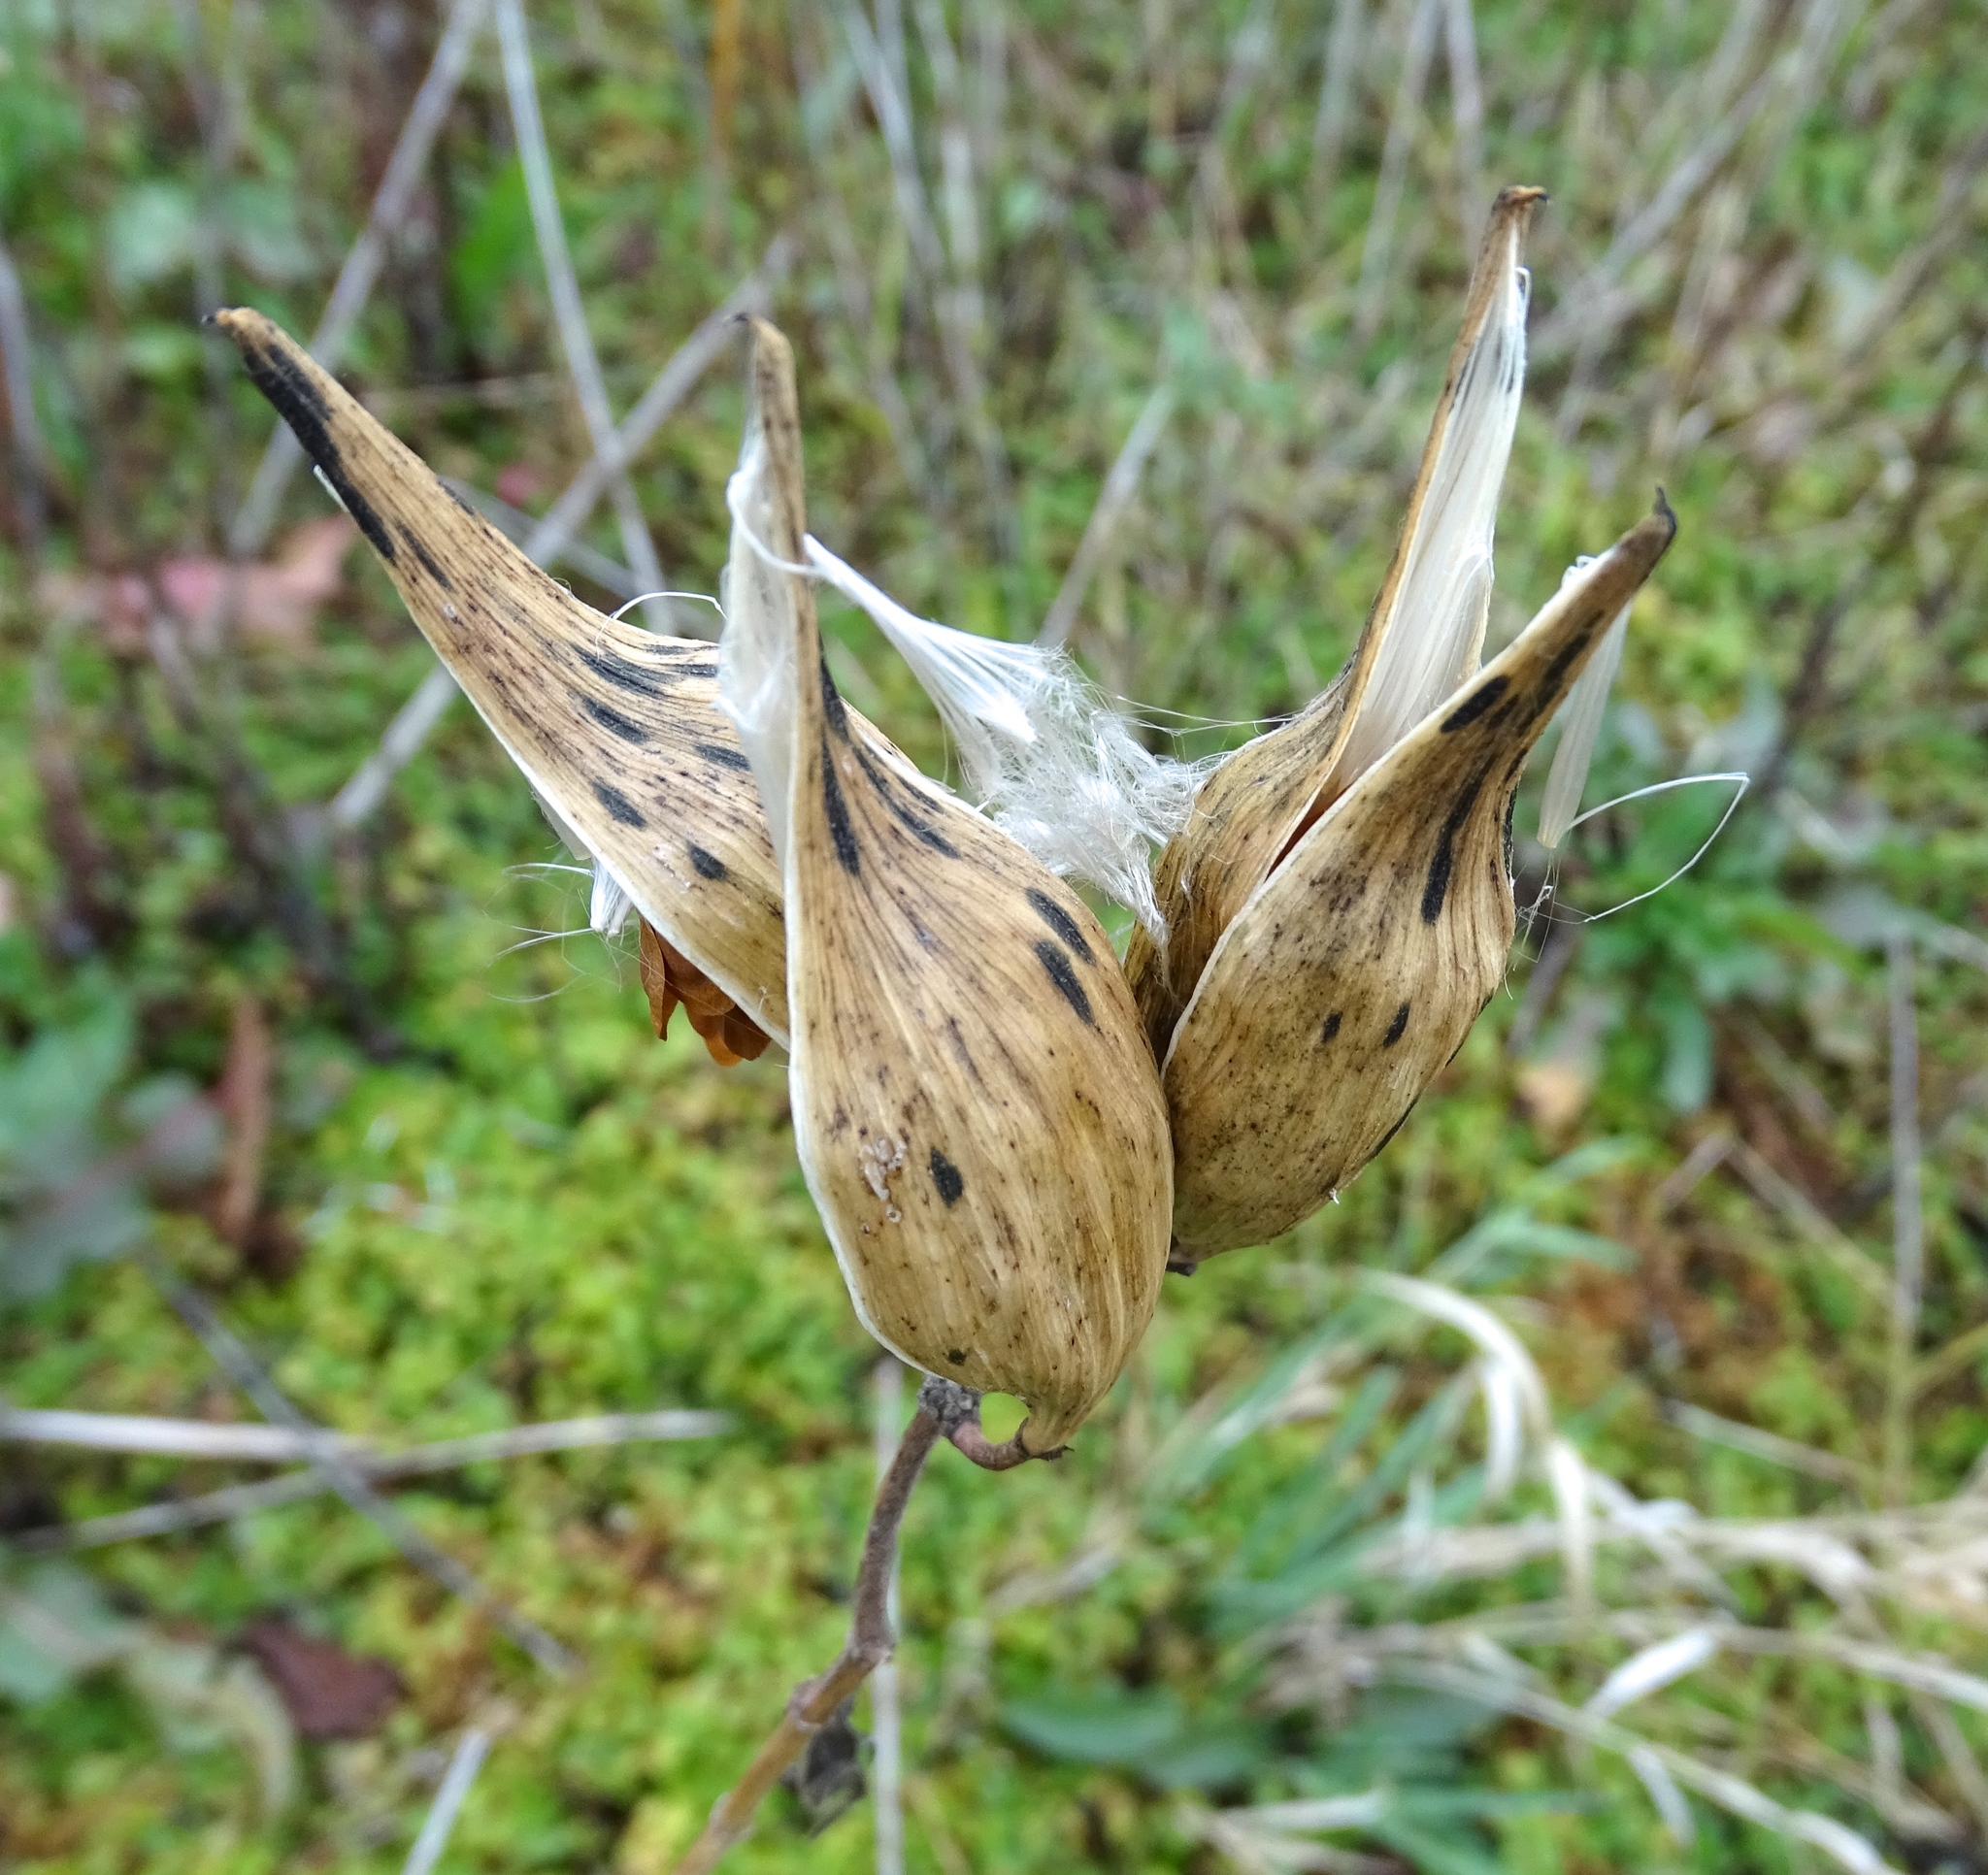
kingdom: Plantae
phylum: Tracheophyta
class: Magnoliopsida
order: Gentianales
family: Apocynaceae
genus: Asclepias
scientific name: Asclepias incarnata
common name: Swamp milkweed
